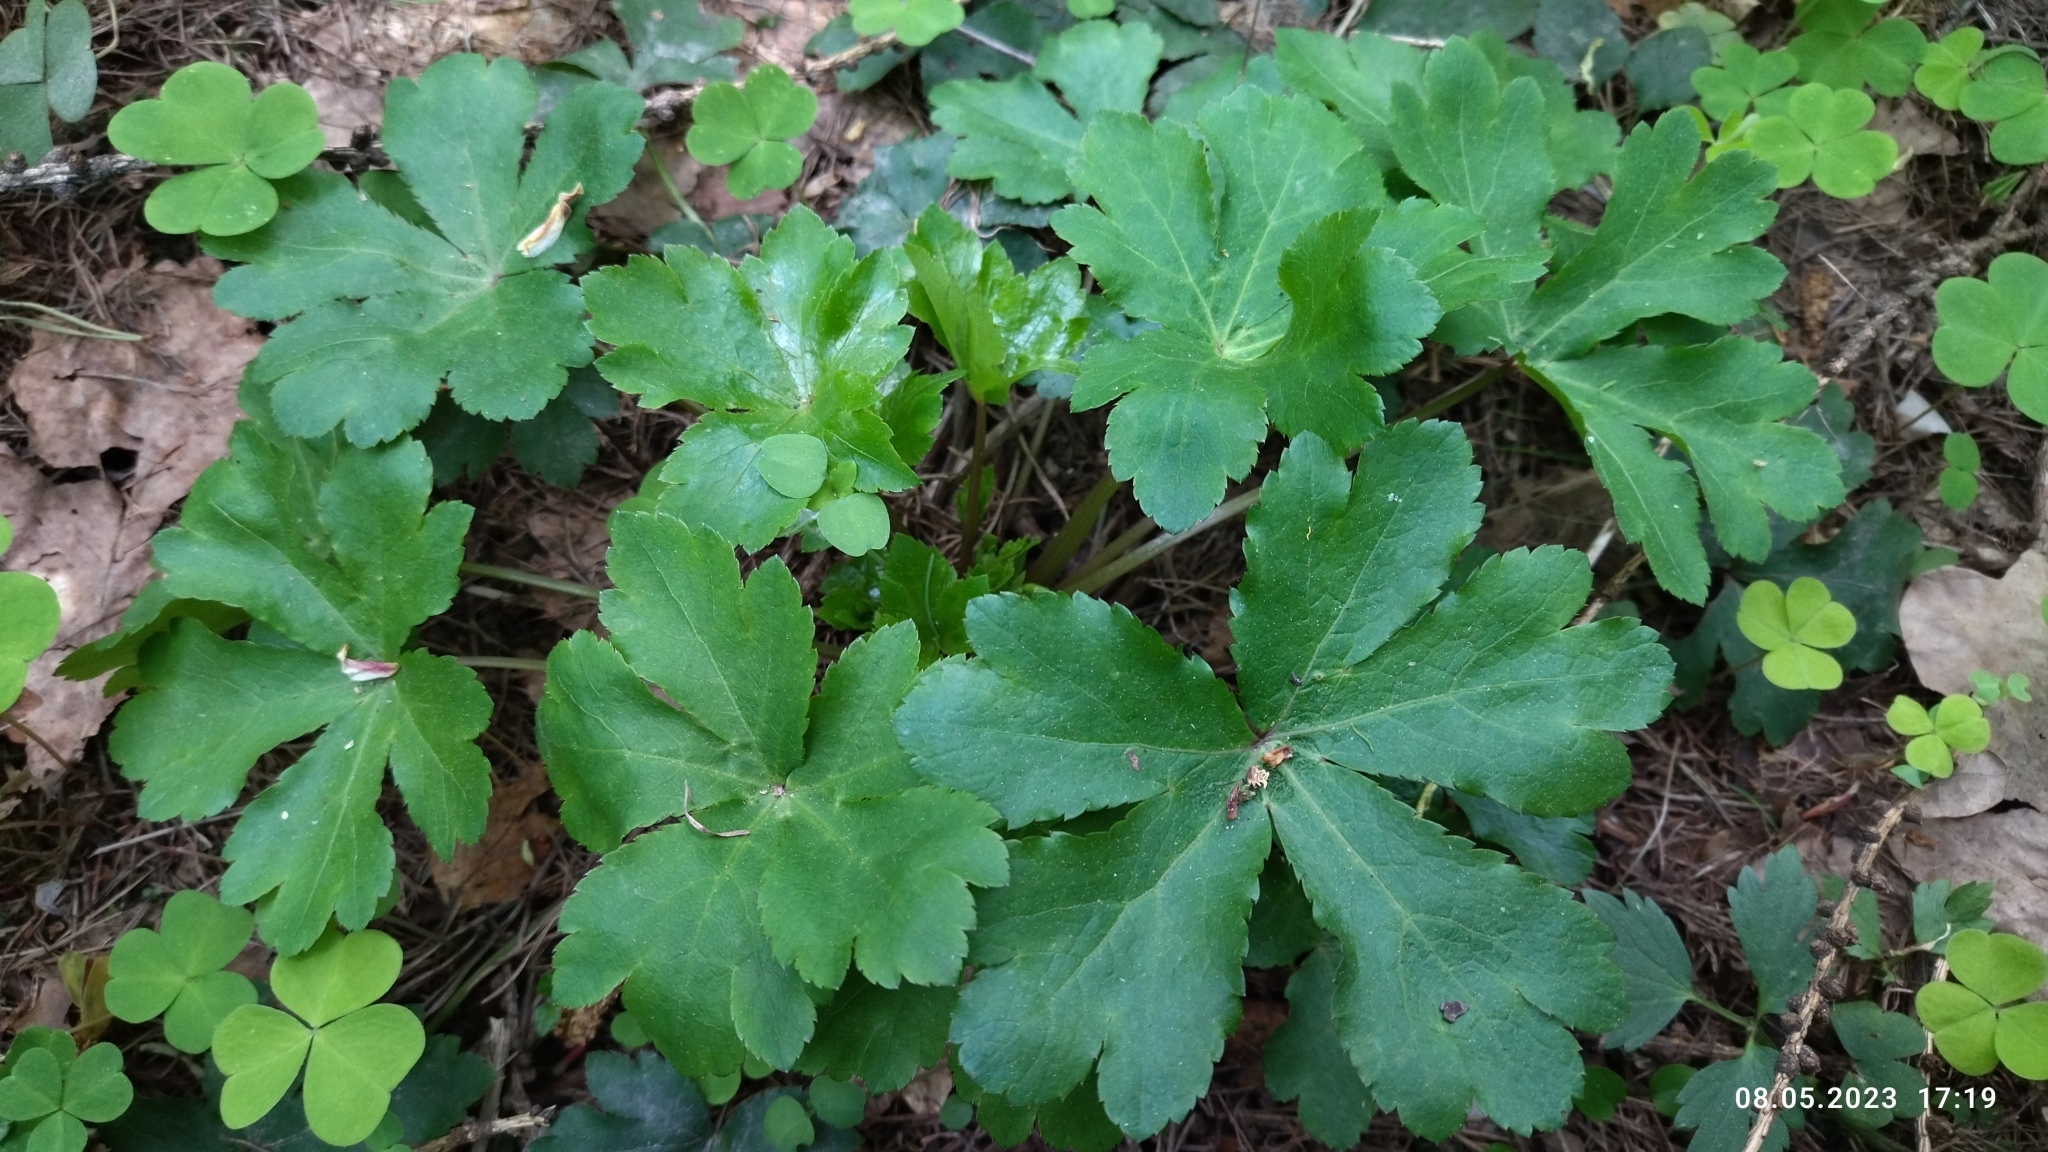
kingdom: Plantae
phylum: Tracheophyta
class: Magnoliopsida
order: Apiales
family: Apiaceae
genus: Sanicula
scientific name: Sanicula europaea
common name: Sanicle
